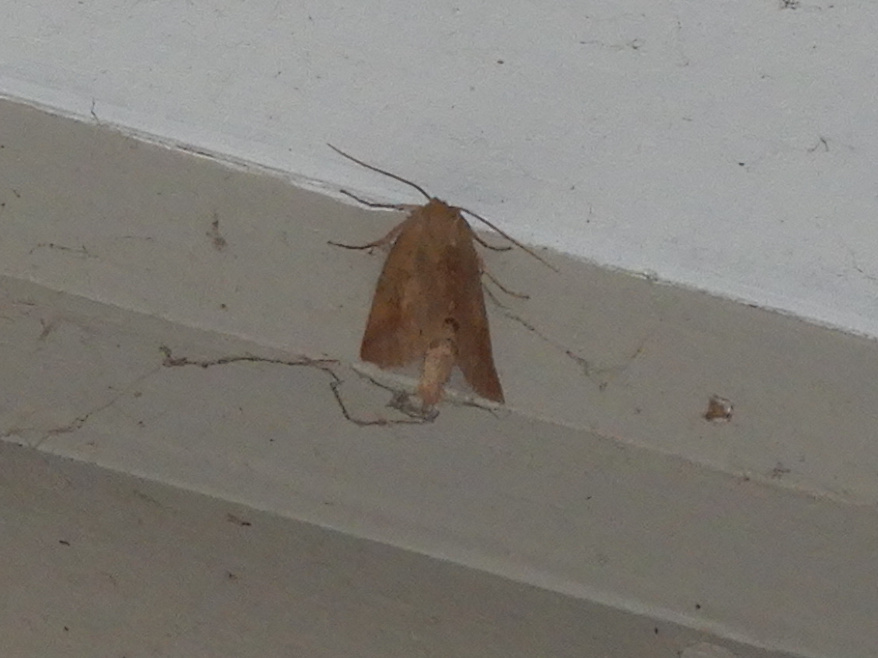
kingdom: Animalia
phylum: Arthropoda
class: Insecta
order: Lepidoptera
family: Geometridae
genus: Declana
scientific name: Declana leptomera
